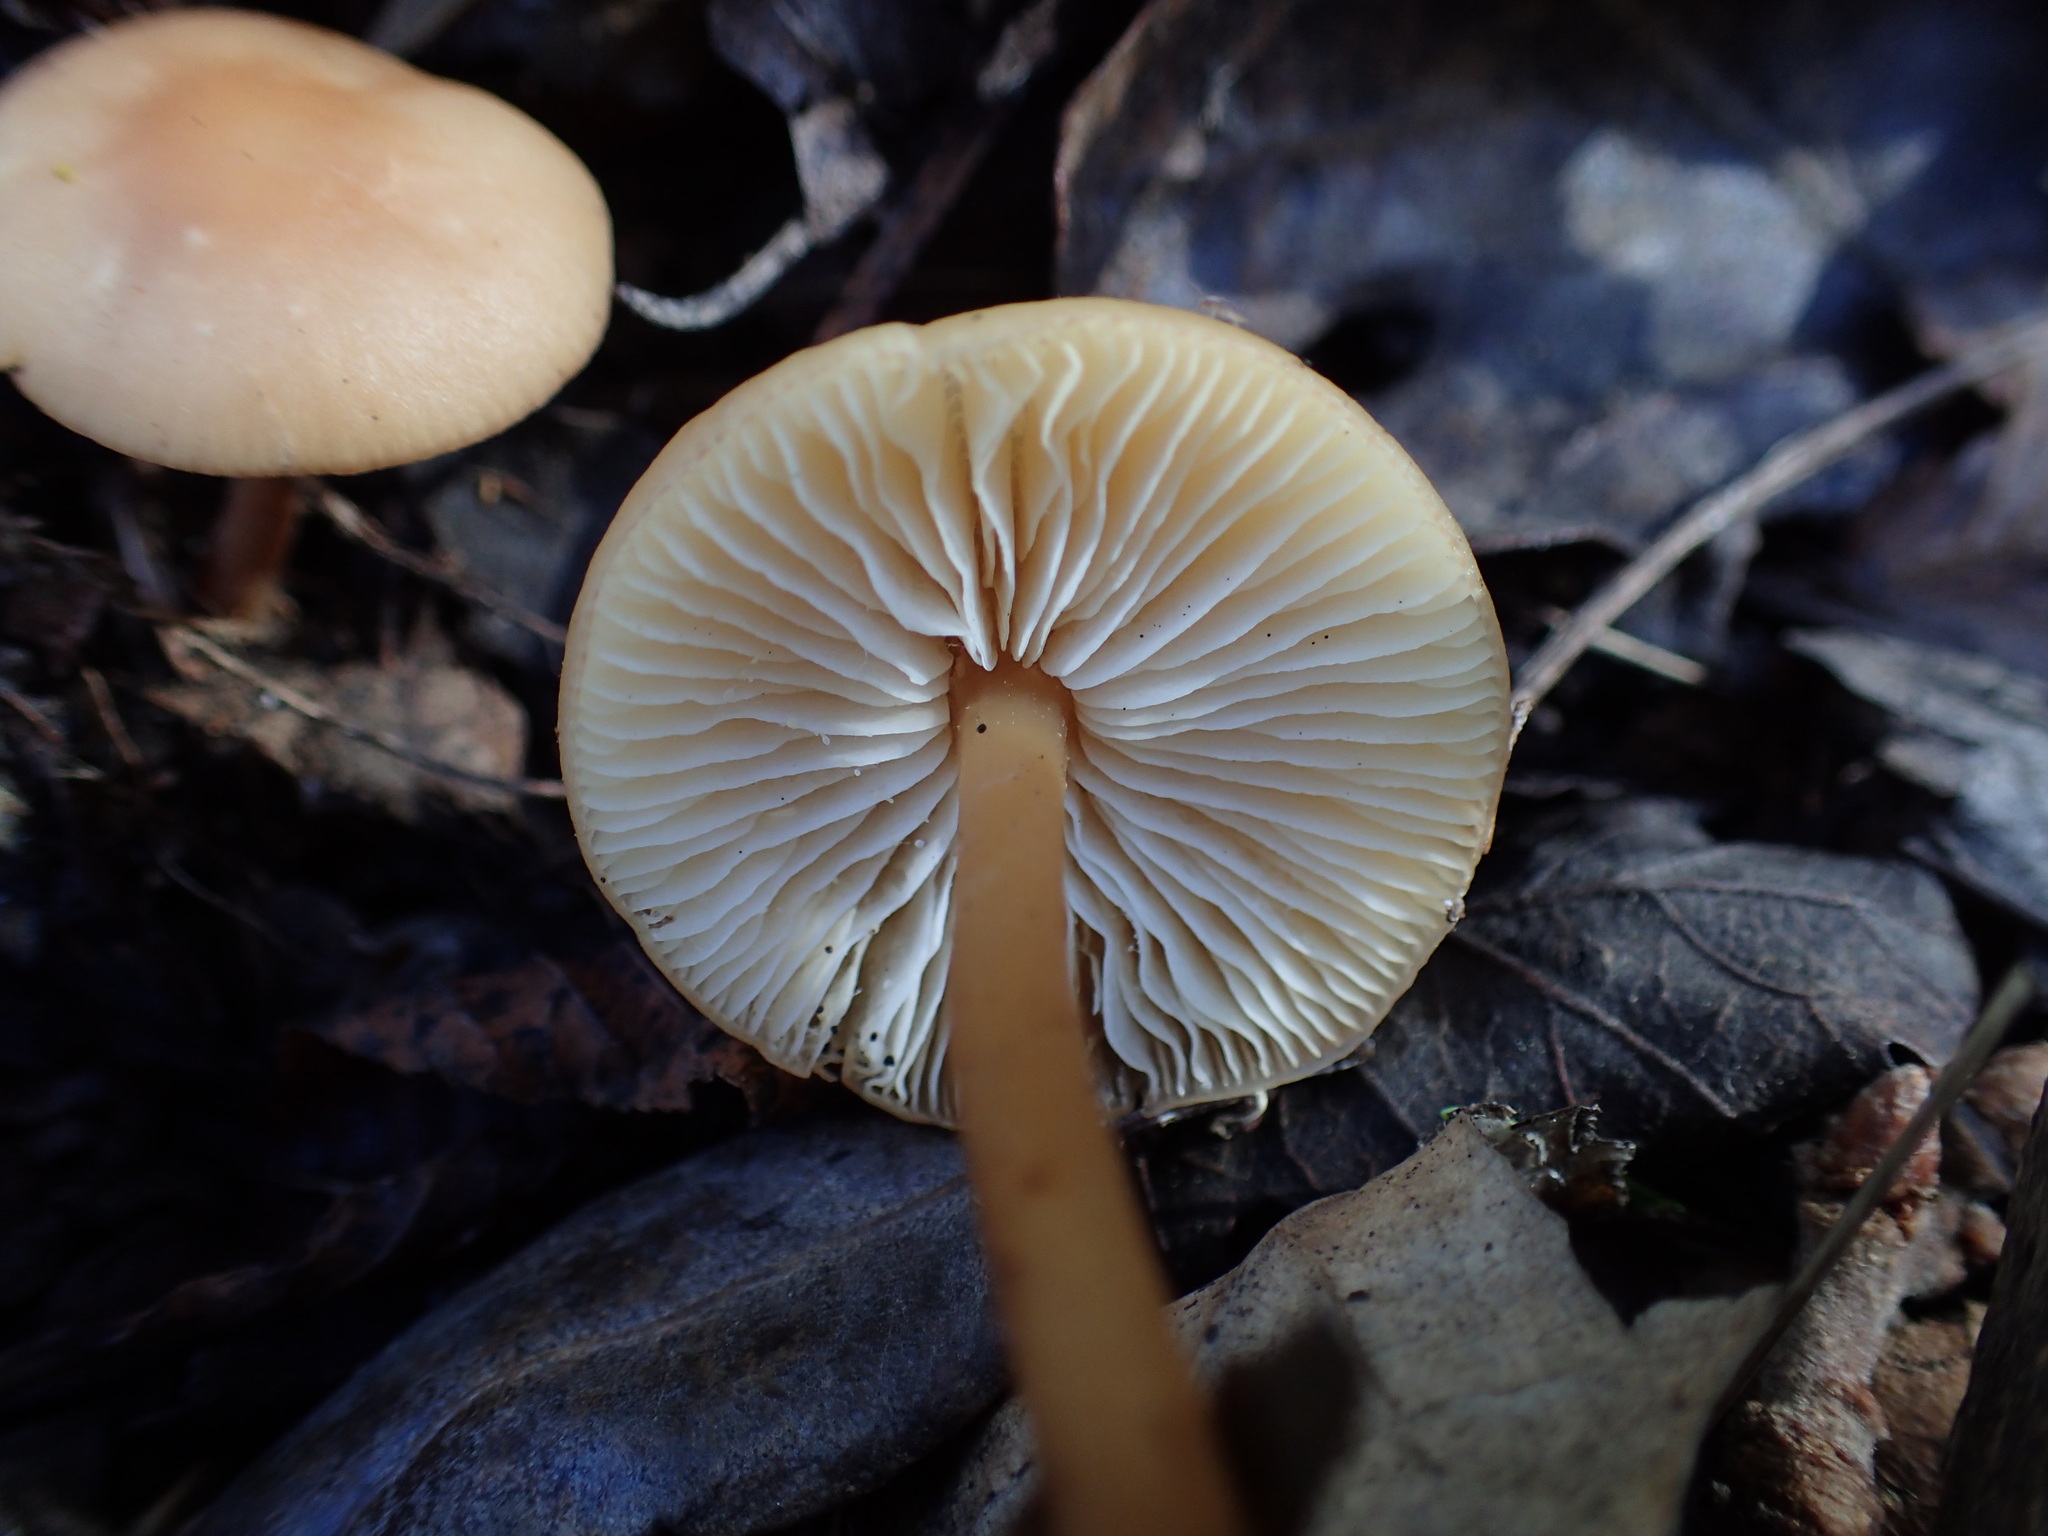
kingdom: Fungi
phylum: Basidiomycota
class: Agaricomycetes
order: Agaricales
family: Omphalotaceae
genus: Gymnopus
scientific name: Gymnopus dryophilus
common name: Penny top
